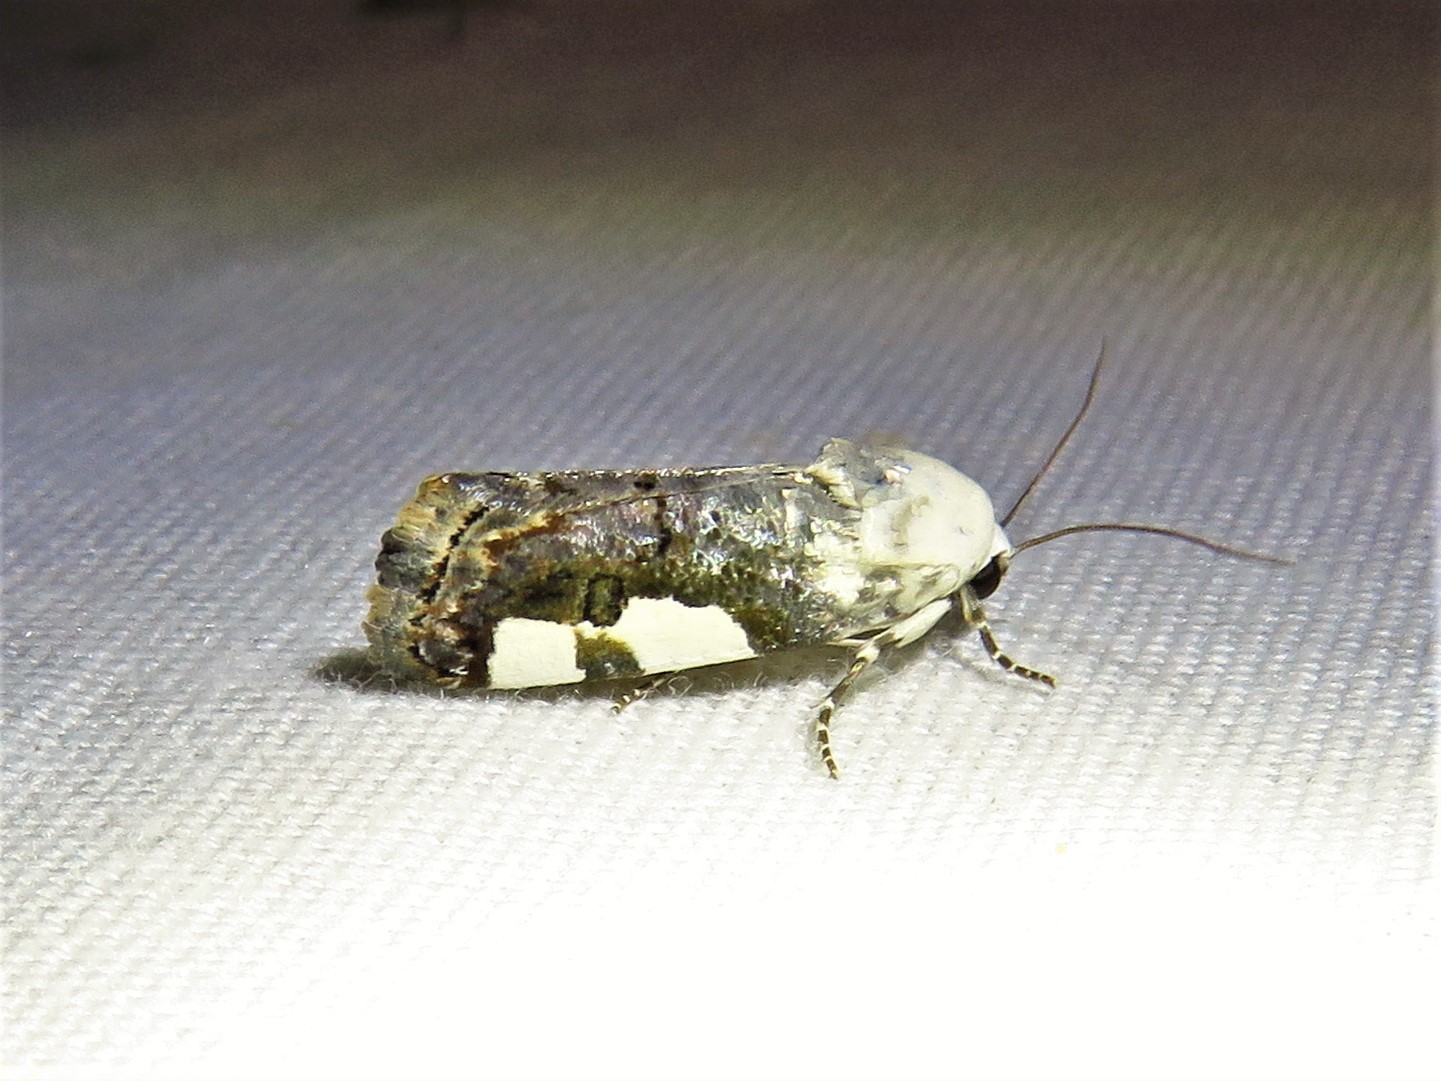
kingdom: Animalia
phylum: Arthropoda
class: Insecta
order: Lepidoptera
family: Noctuidae
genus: Acontia
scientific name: Acontia quadriplaga
